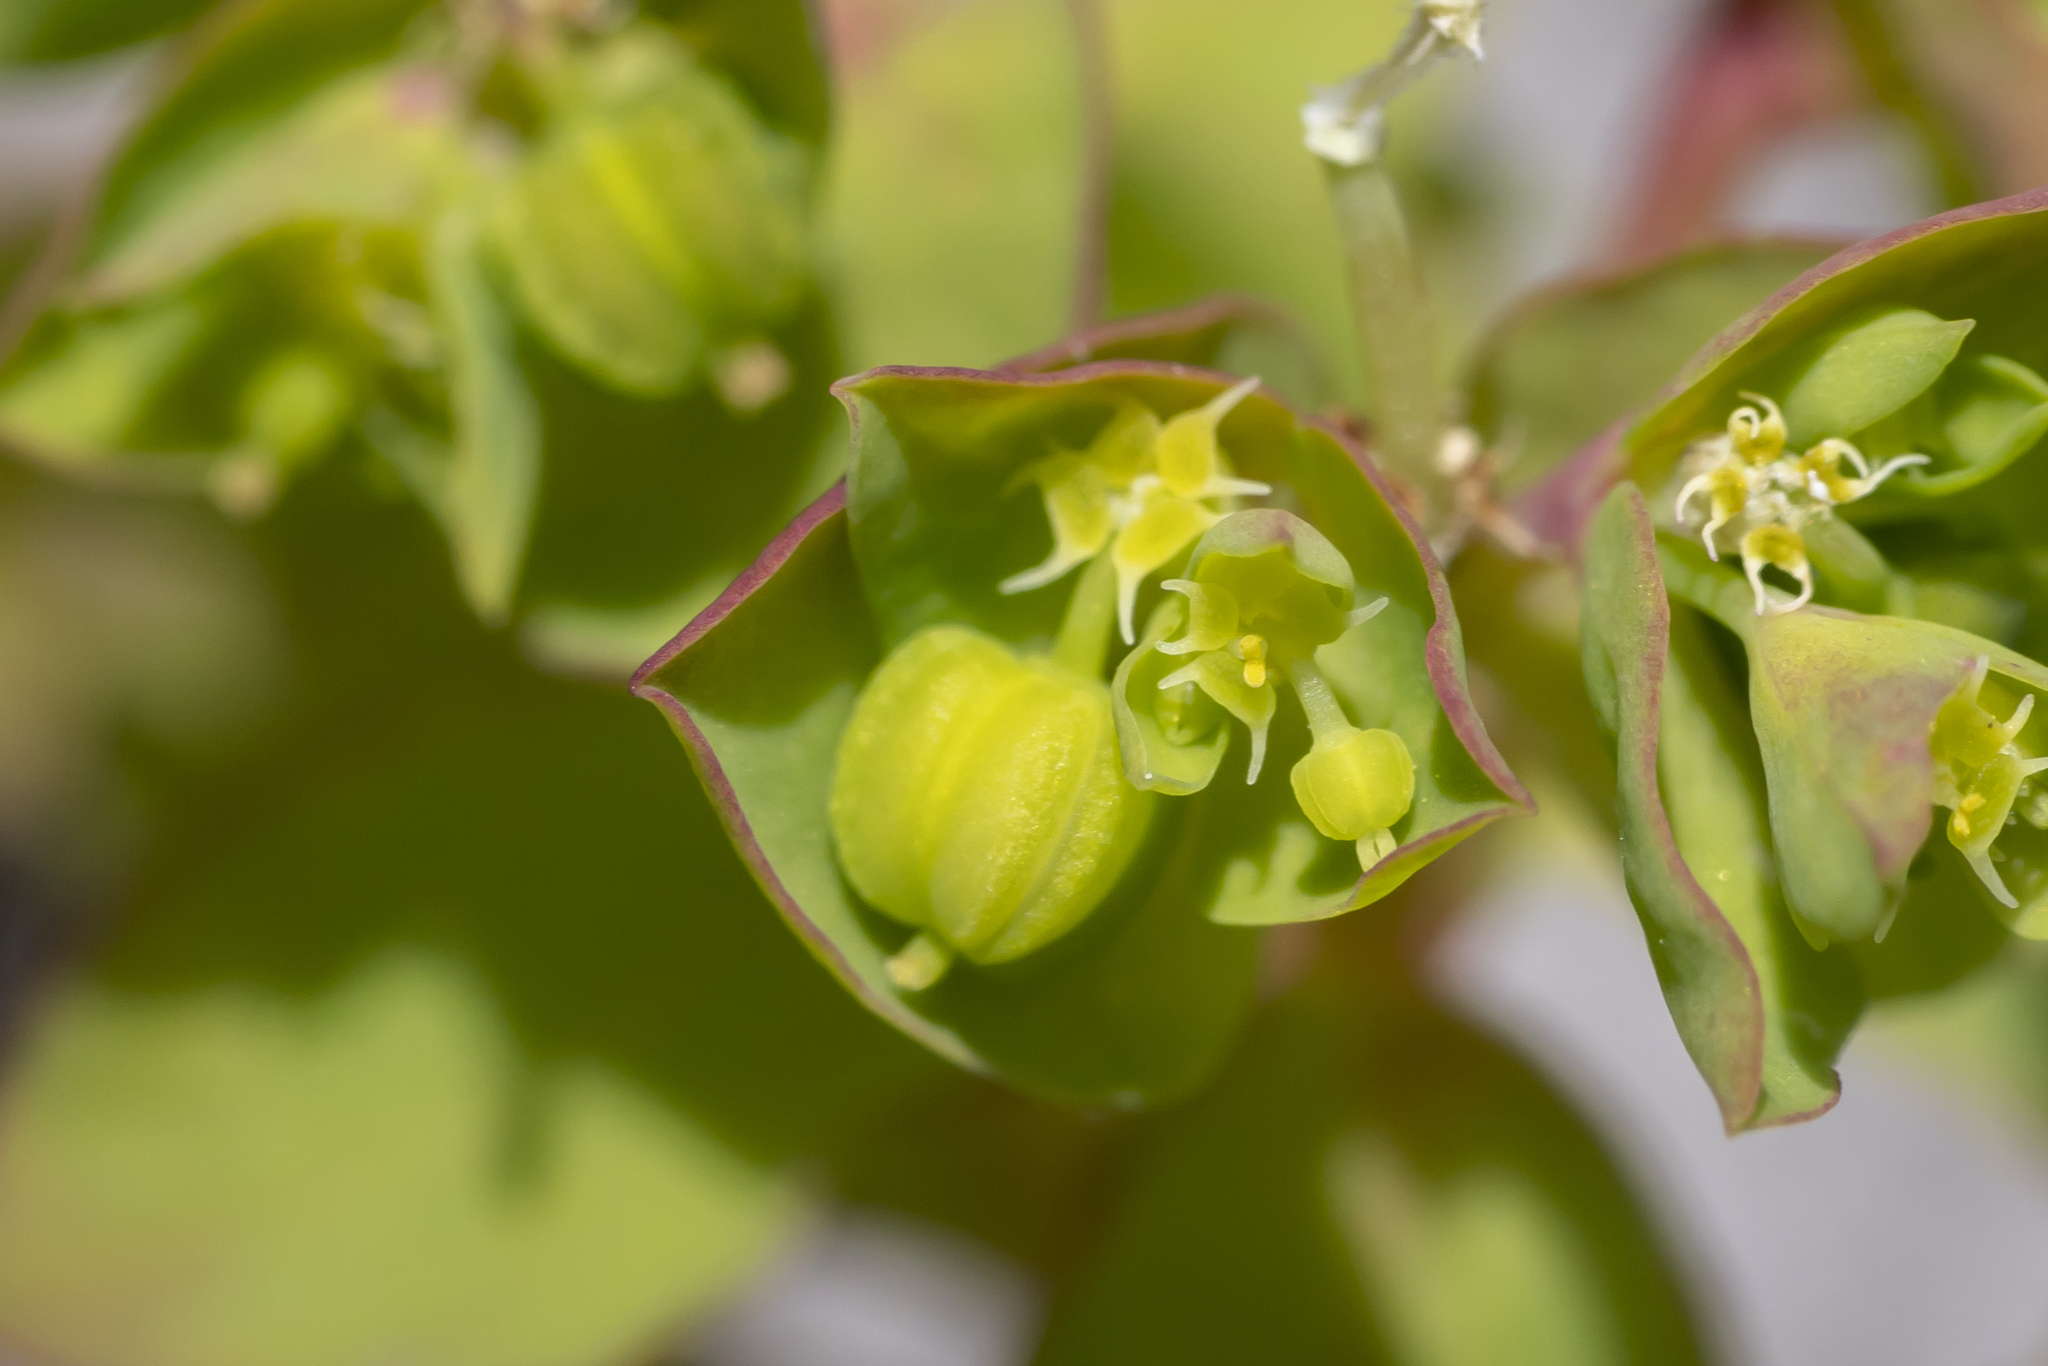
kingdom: Plantae
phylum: Tracheophyta
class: Magnoliopsida
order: Malpighiales
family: Euphorbiaceae
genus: Euphorbia
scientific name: Euphorbia peplus
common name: Petty spurge
